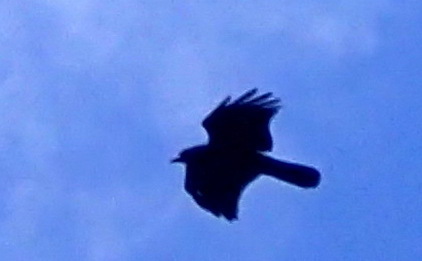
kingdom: Animalia
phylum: Chordata
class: Aves
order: Passeriformes
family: Corvidae
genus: Corvus
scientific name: Corvus
